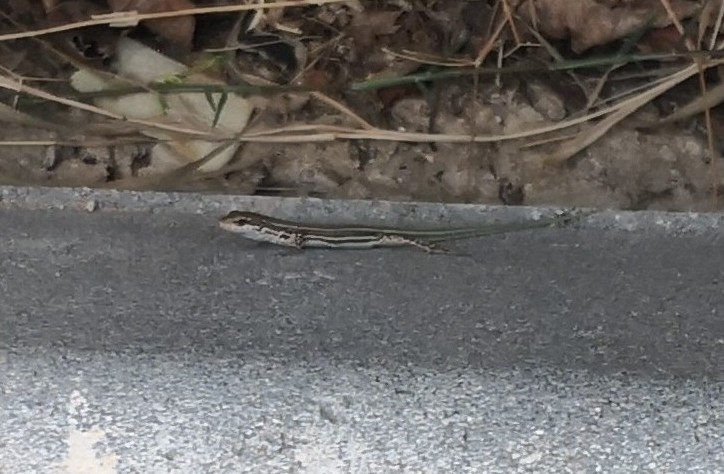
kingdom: Animalia
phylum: Chordata
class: Squamata
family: Lacertidae
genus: Podarcis
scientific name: Podarcis virescens
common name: Geniez’s wall lizard
